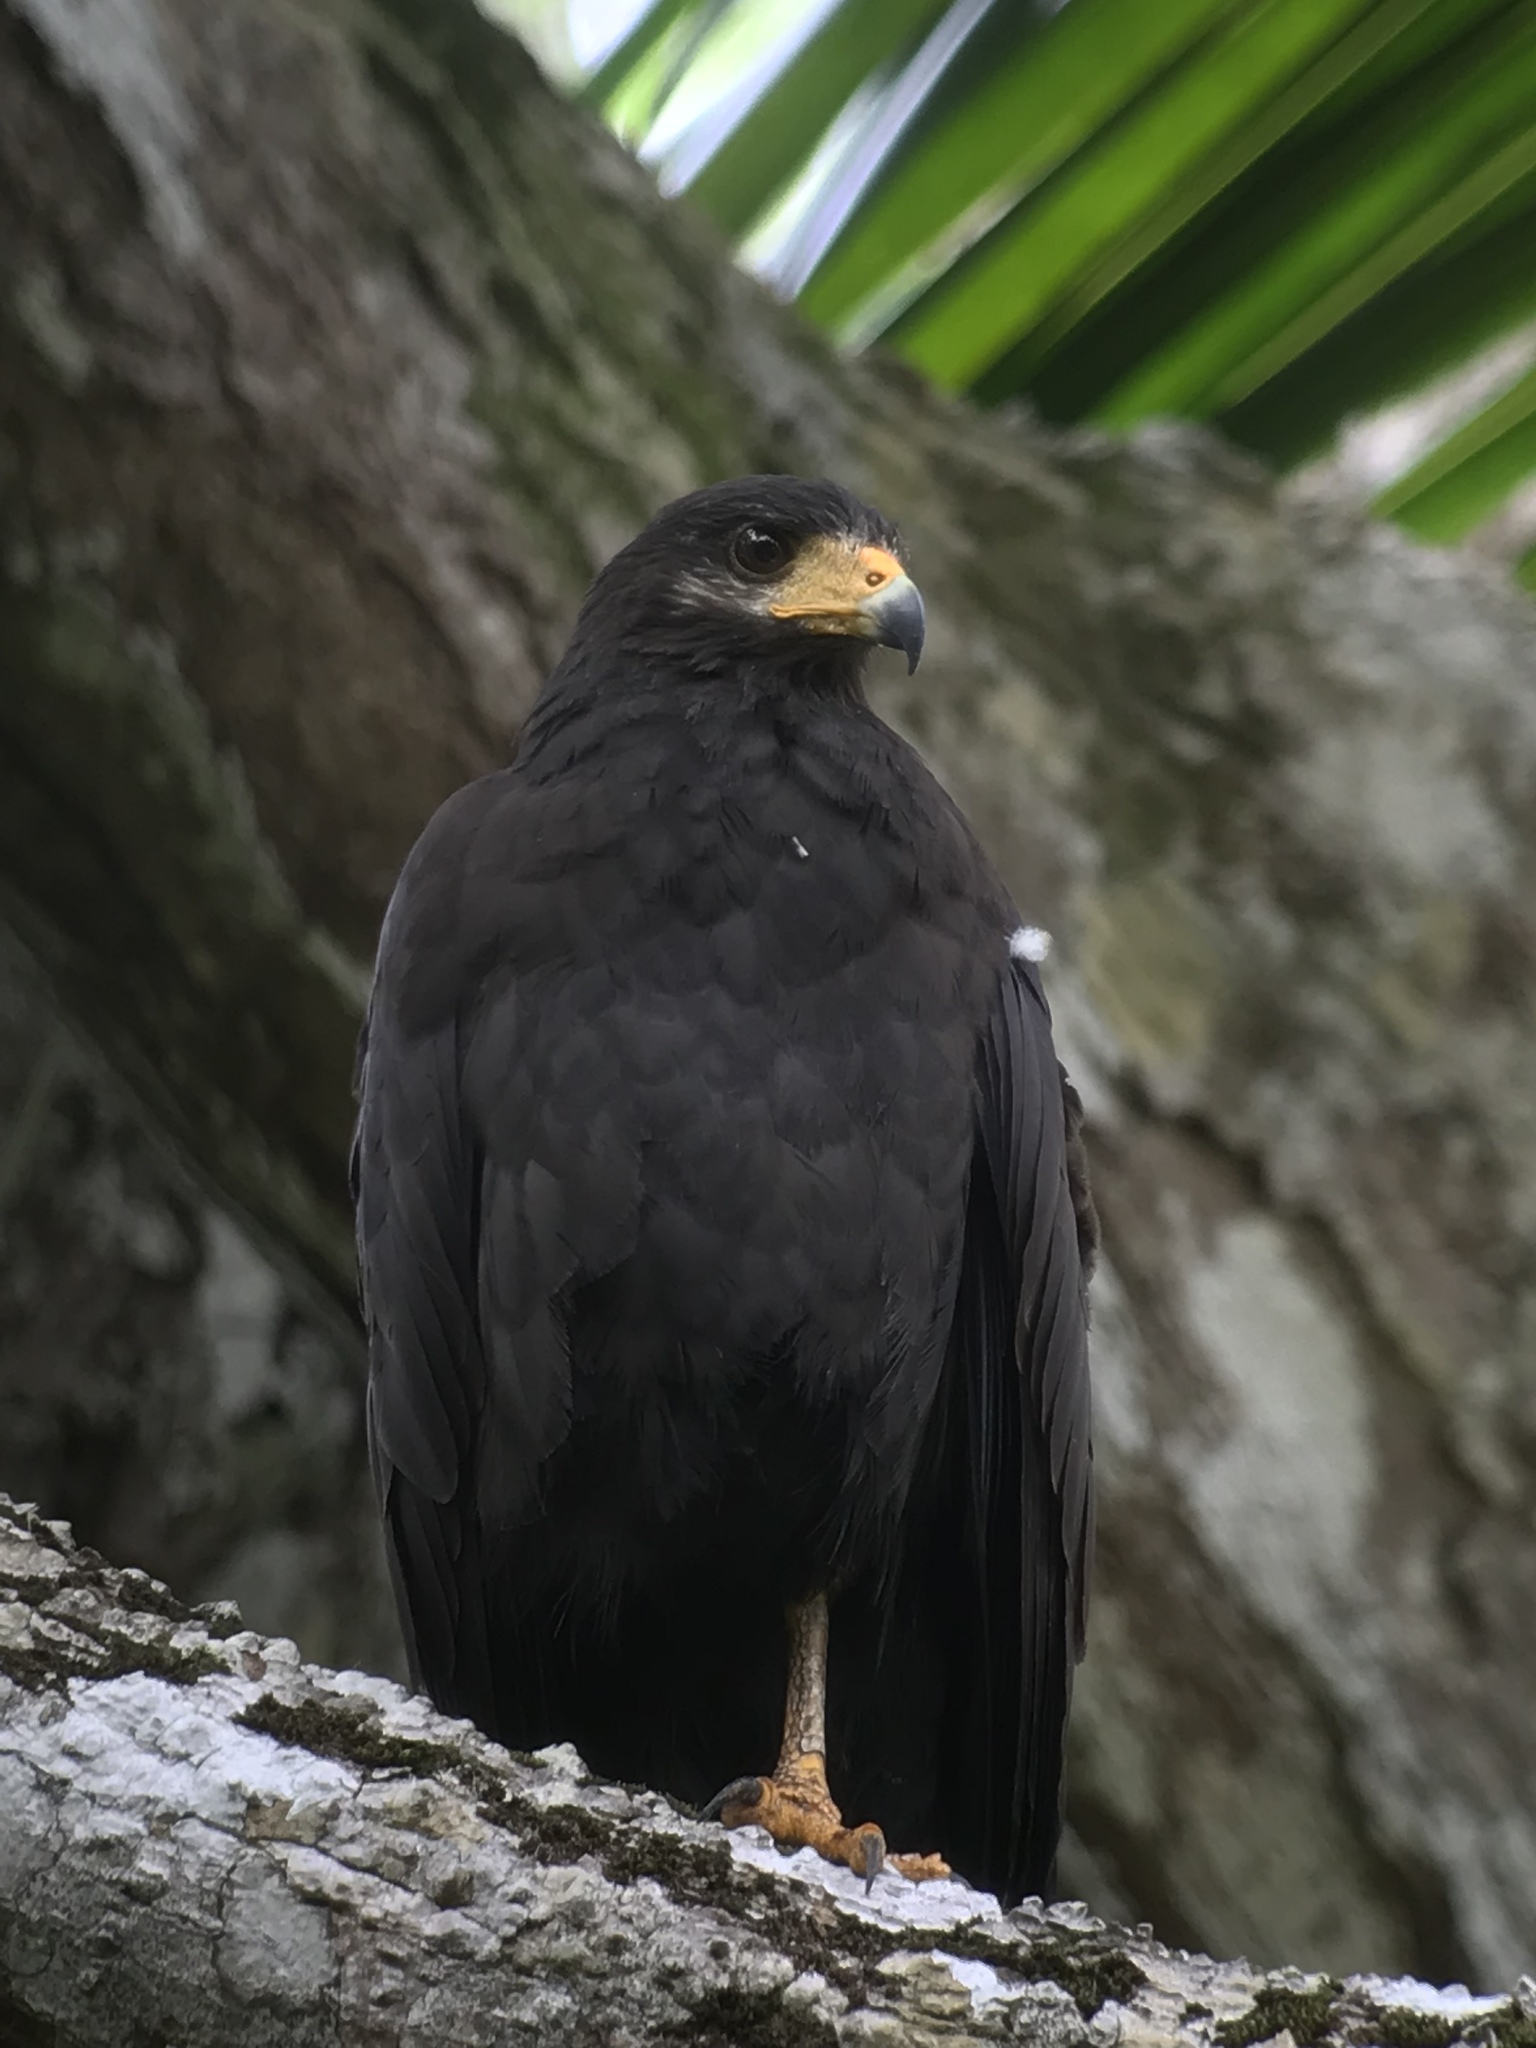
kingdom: Animalia
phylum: Chordata
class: Aves
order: Accipitriformes
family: Accipitridae
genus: Buteogallus
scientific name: Buteogallus anthracinus
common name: Common black hawk
